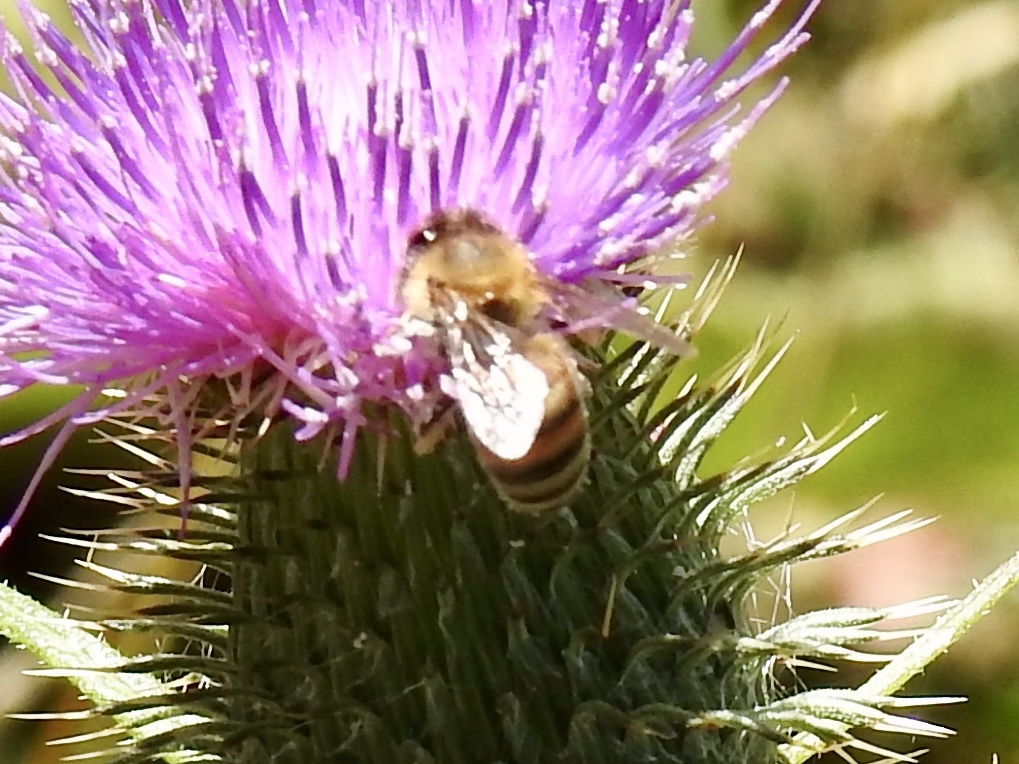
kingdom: Animalia
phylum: Arthropoda
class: Insecta
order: Hymenoptera
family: Apidae
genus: Apis
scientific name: Apis mellifera
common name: Honey bee
